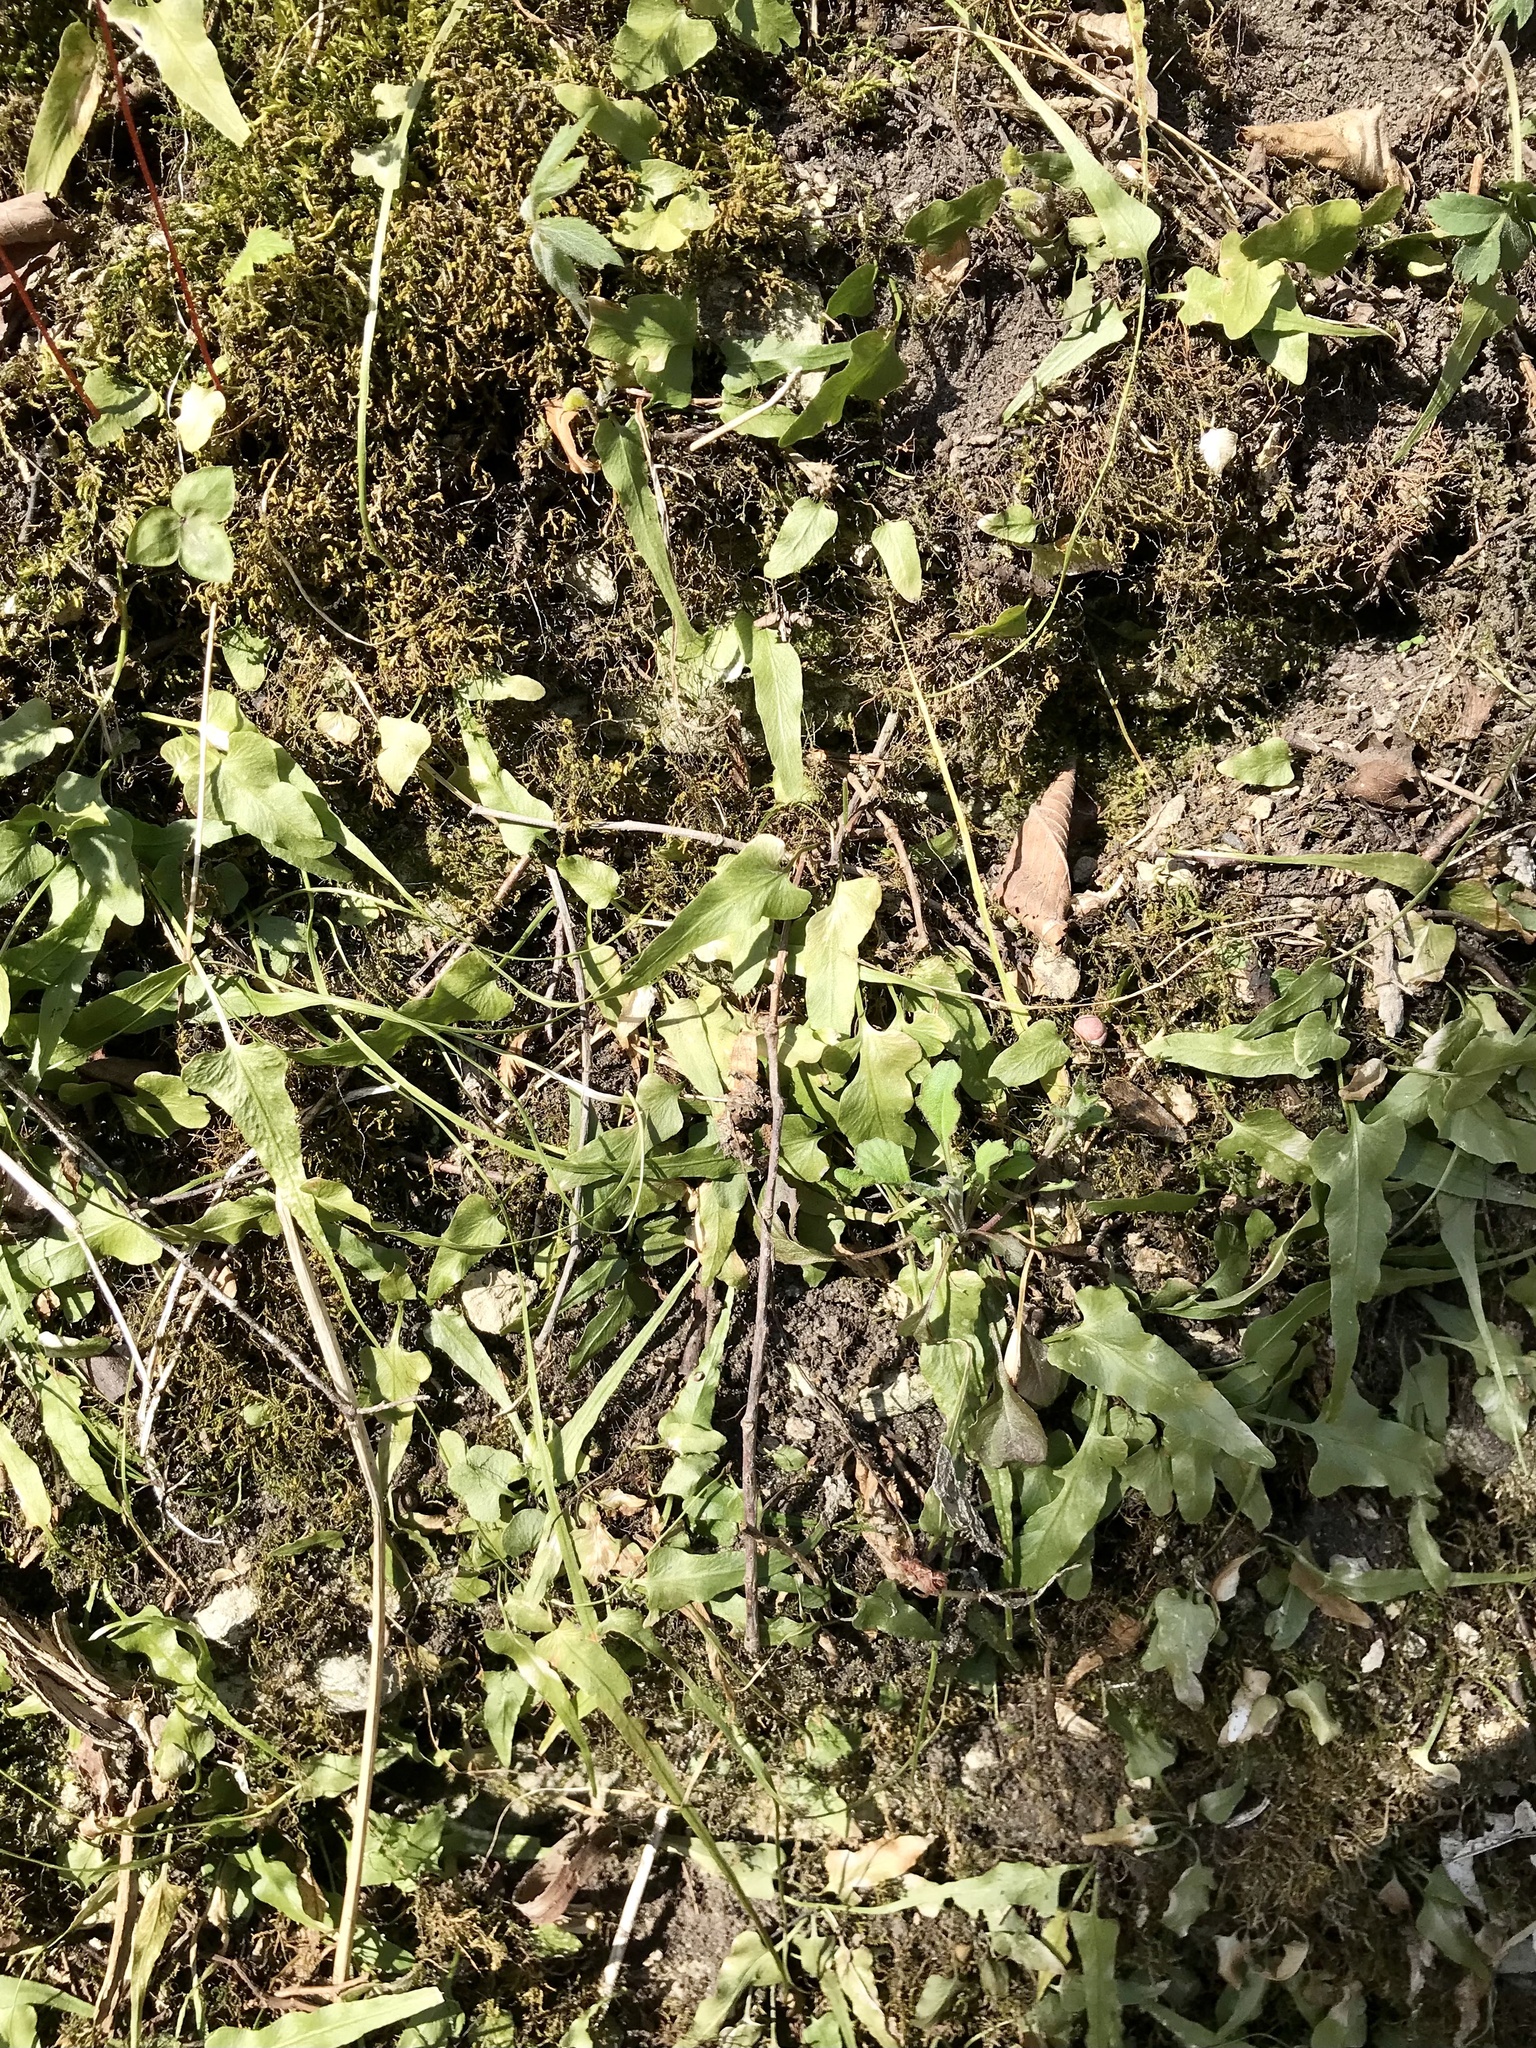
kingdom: Plantae
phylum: Tracheophyta
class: Polypodiopsida
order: Polypodiales
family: Aspleniaceae
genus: Asplenium
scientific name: Asplenium rhizophyllum
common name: Walking fern
